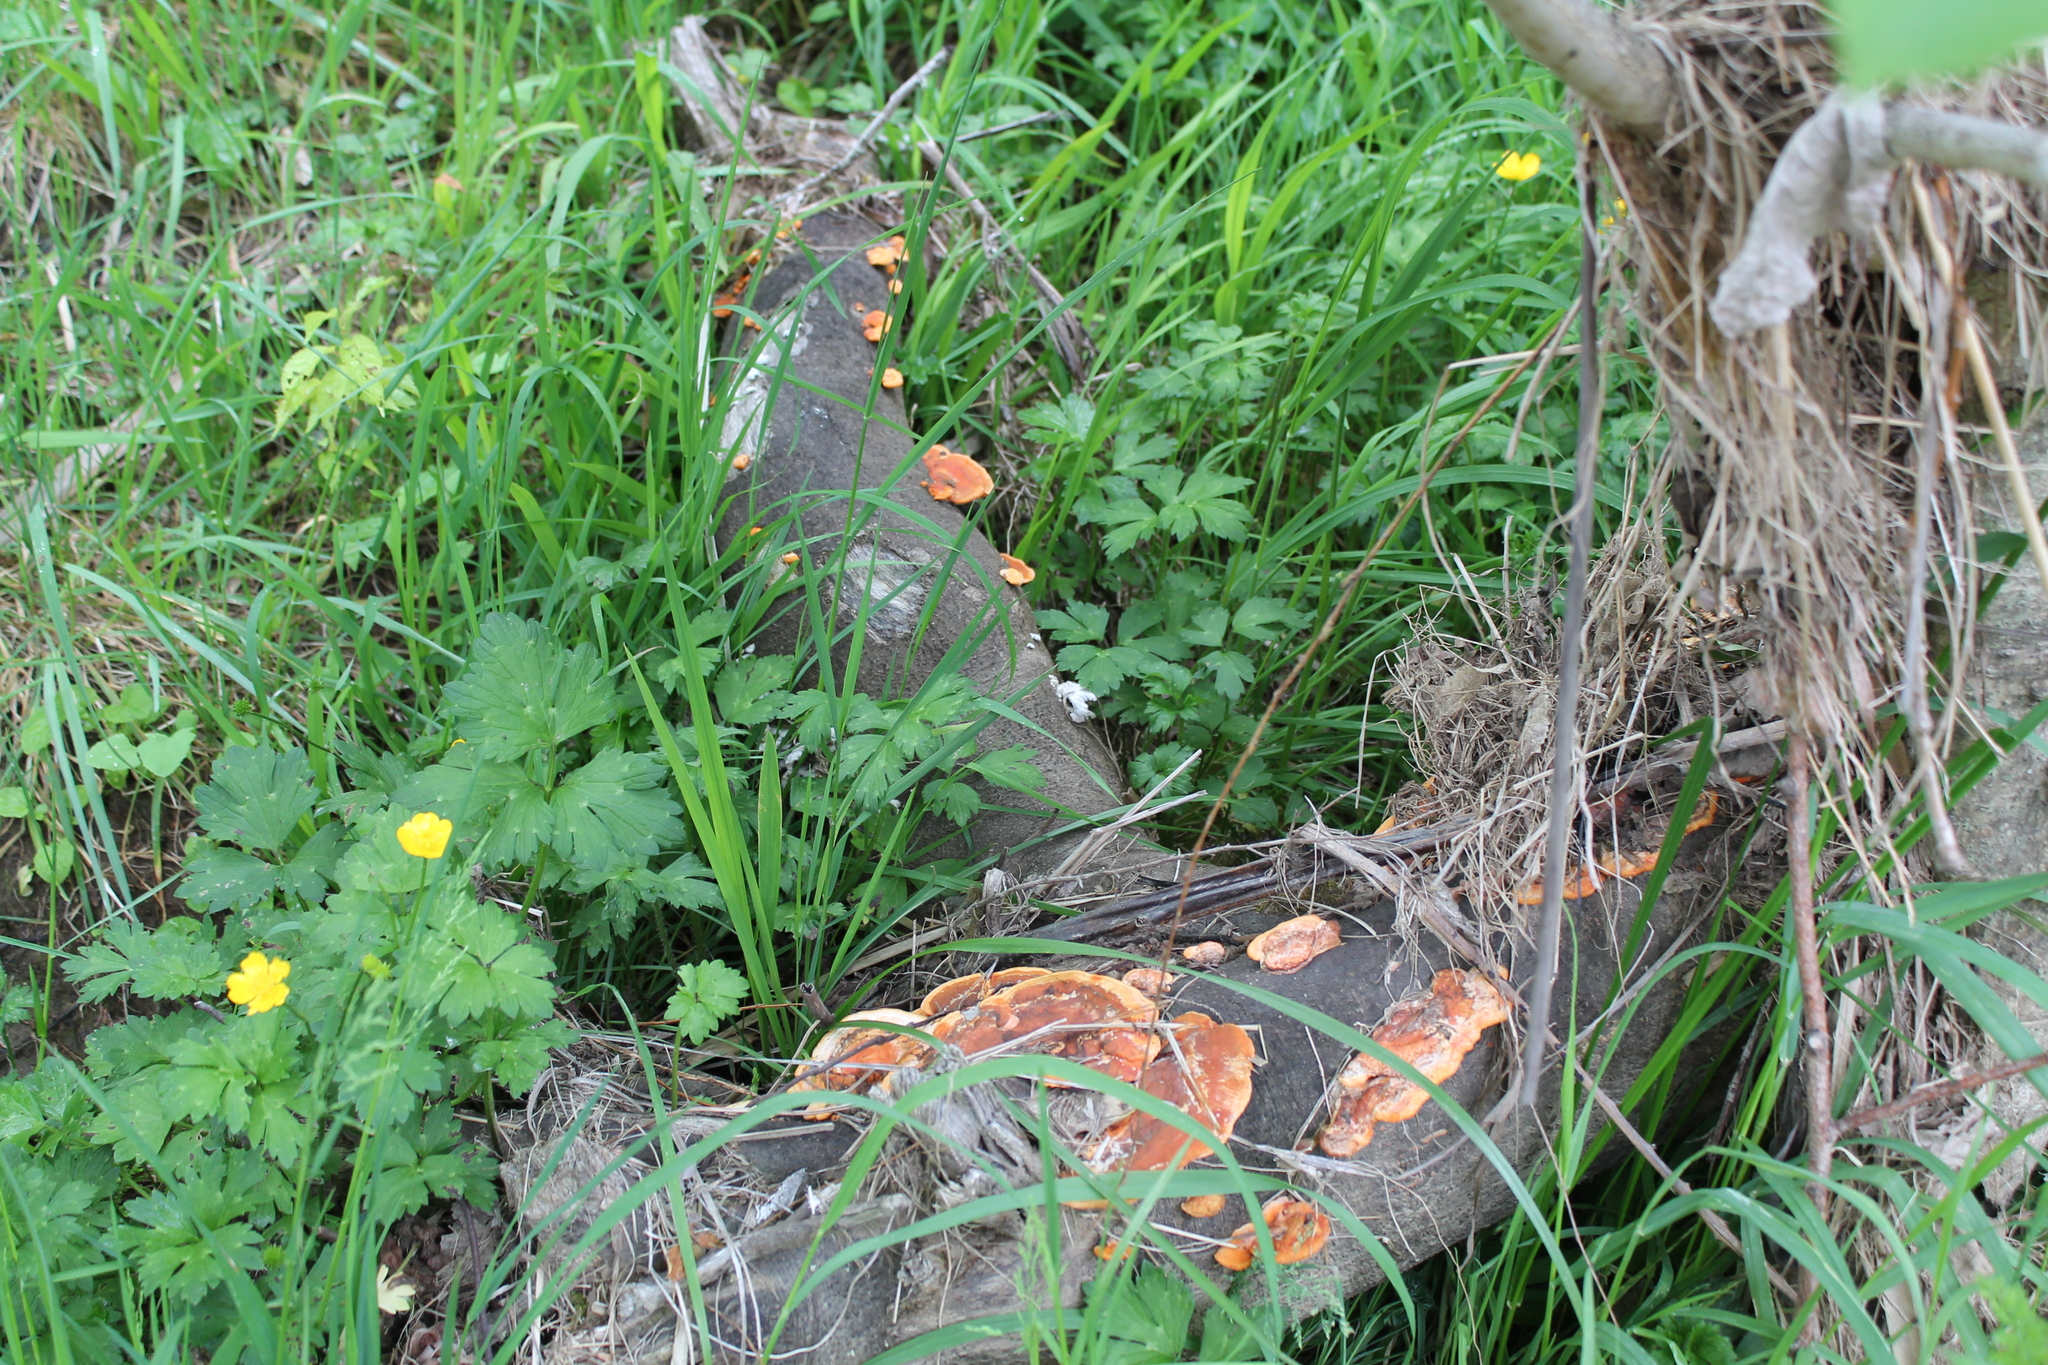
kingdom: Fungi
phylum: Basidiomycota
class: Agaricomycetes
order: Polyporales
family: Polyporaceae
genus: Trametes
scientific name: Trametes coccinea
